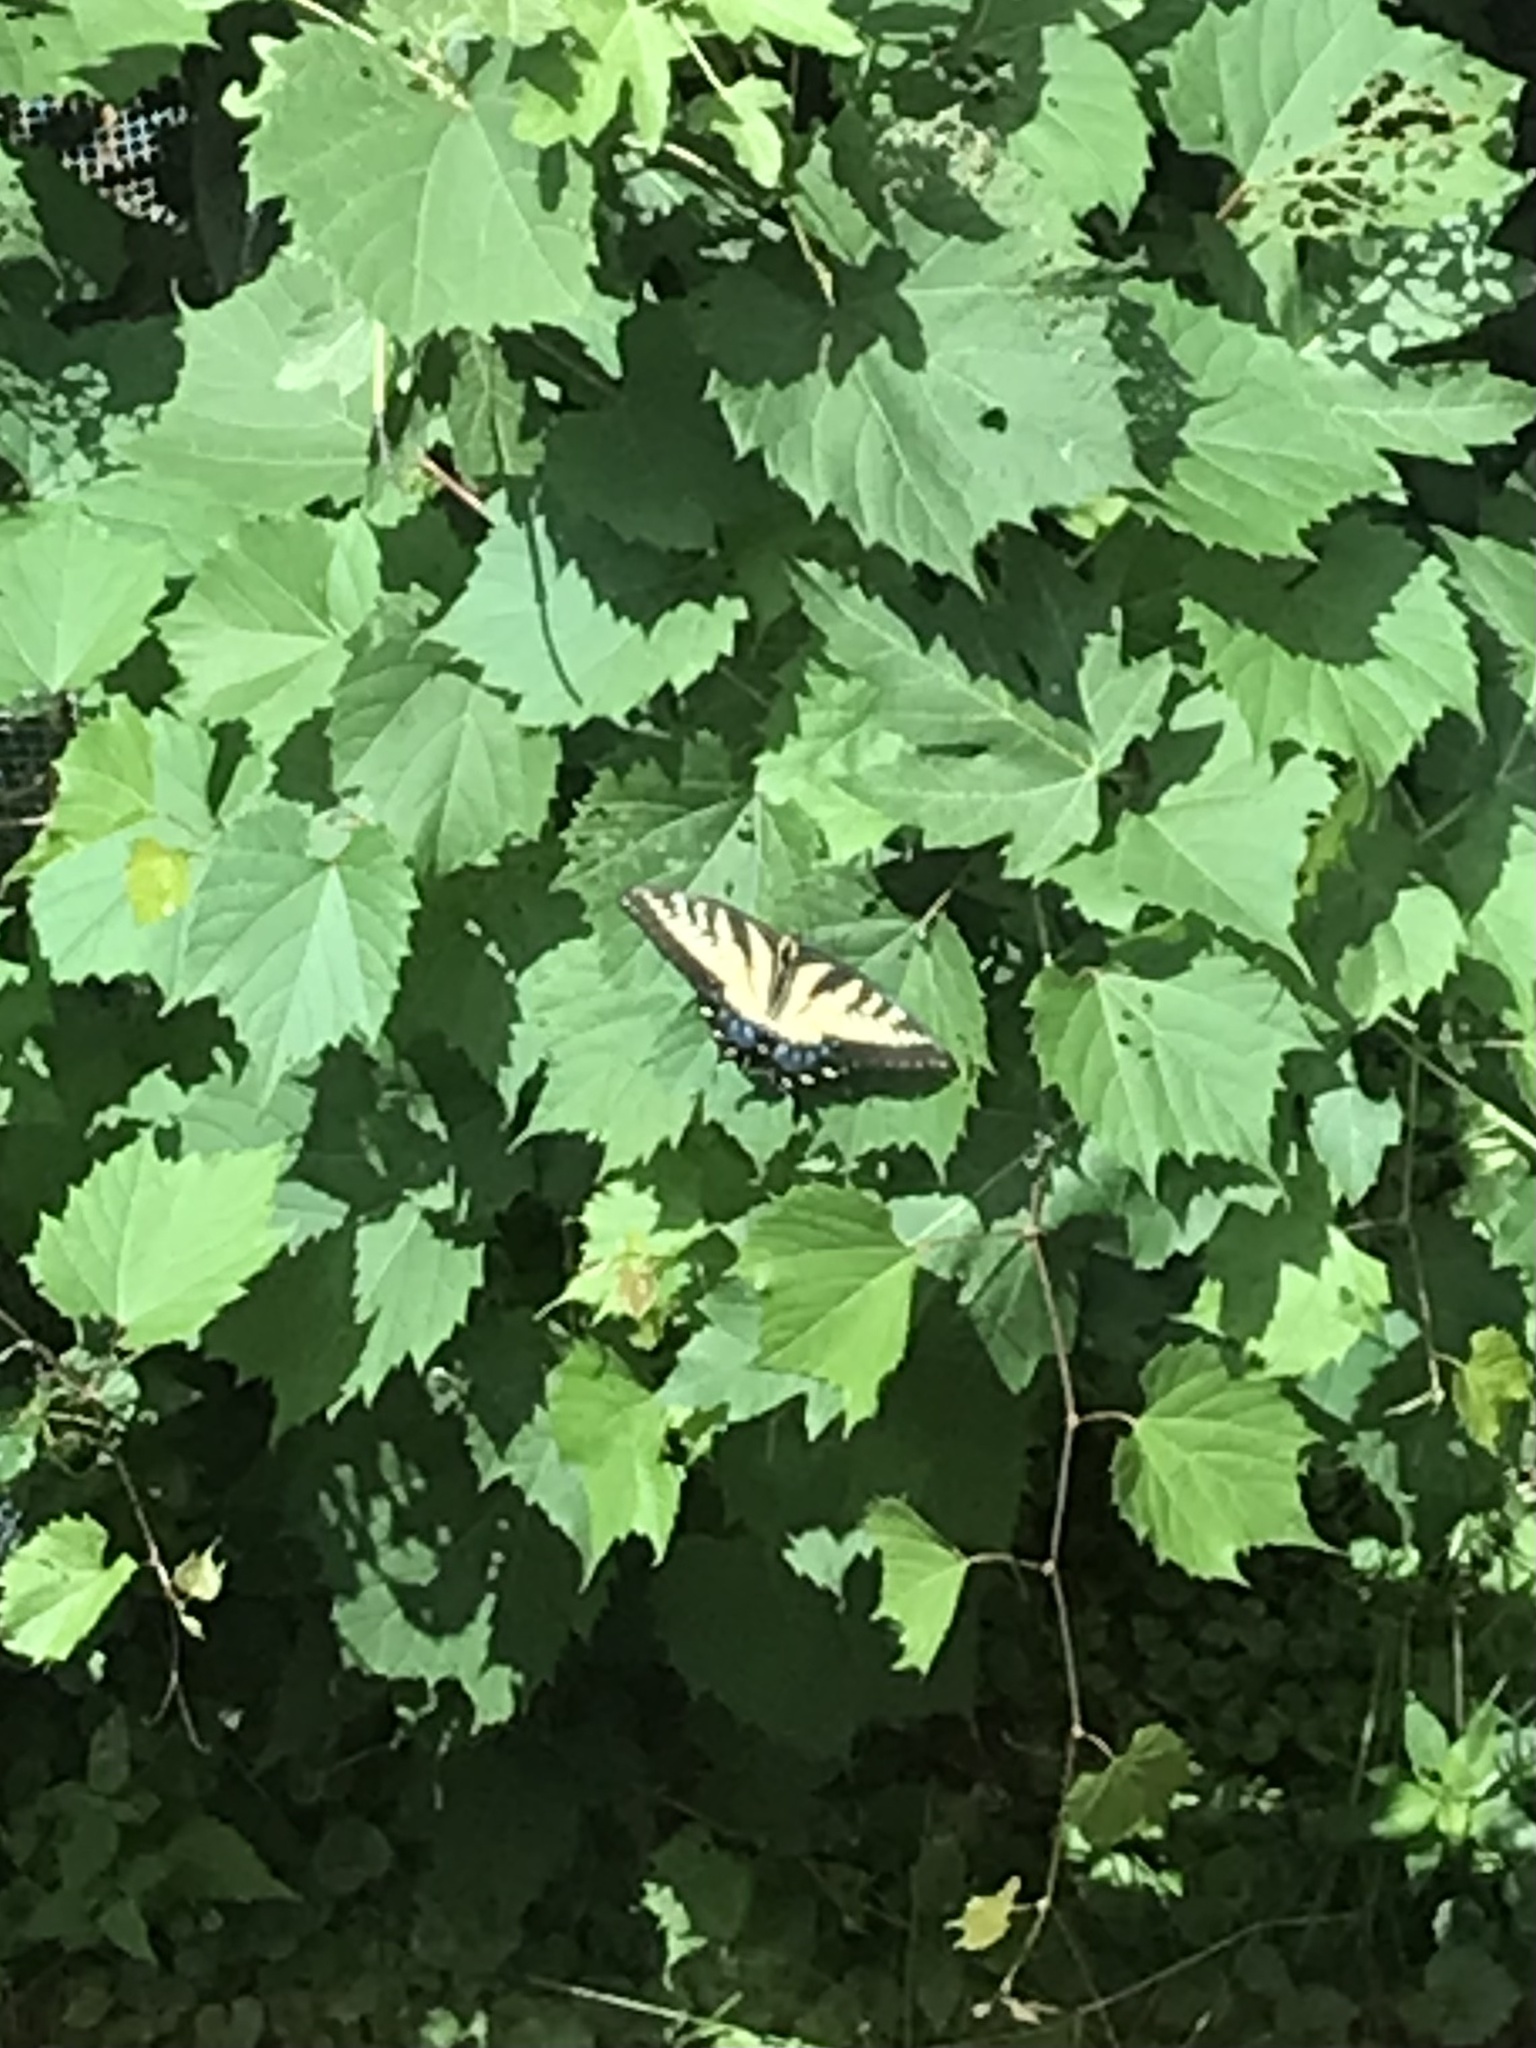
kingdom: Animalia
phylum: Arthropoda
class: Insecta
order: Lepidoptera
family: Papilionidae
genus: Papilio
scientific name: Papilio glaucus
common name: Tiger swallowtail
